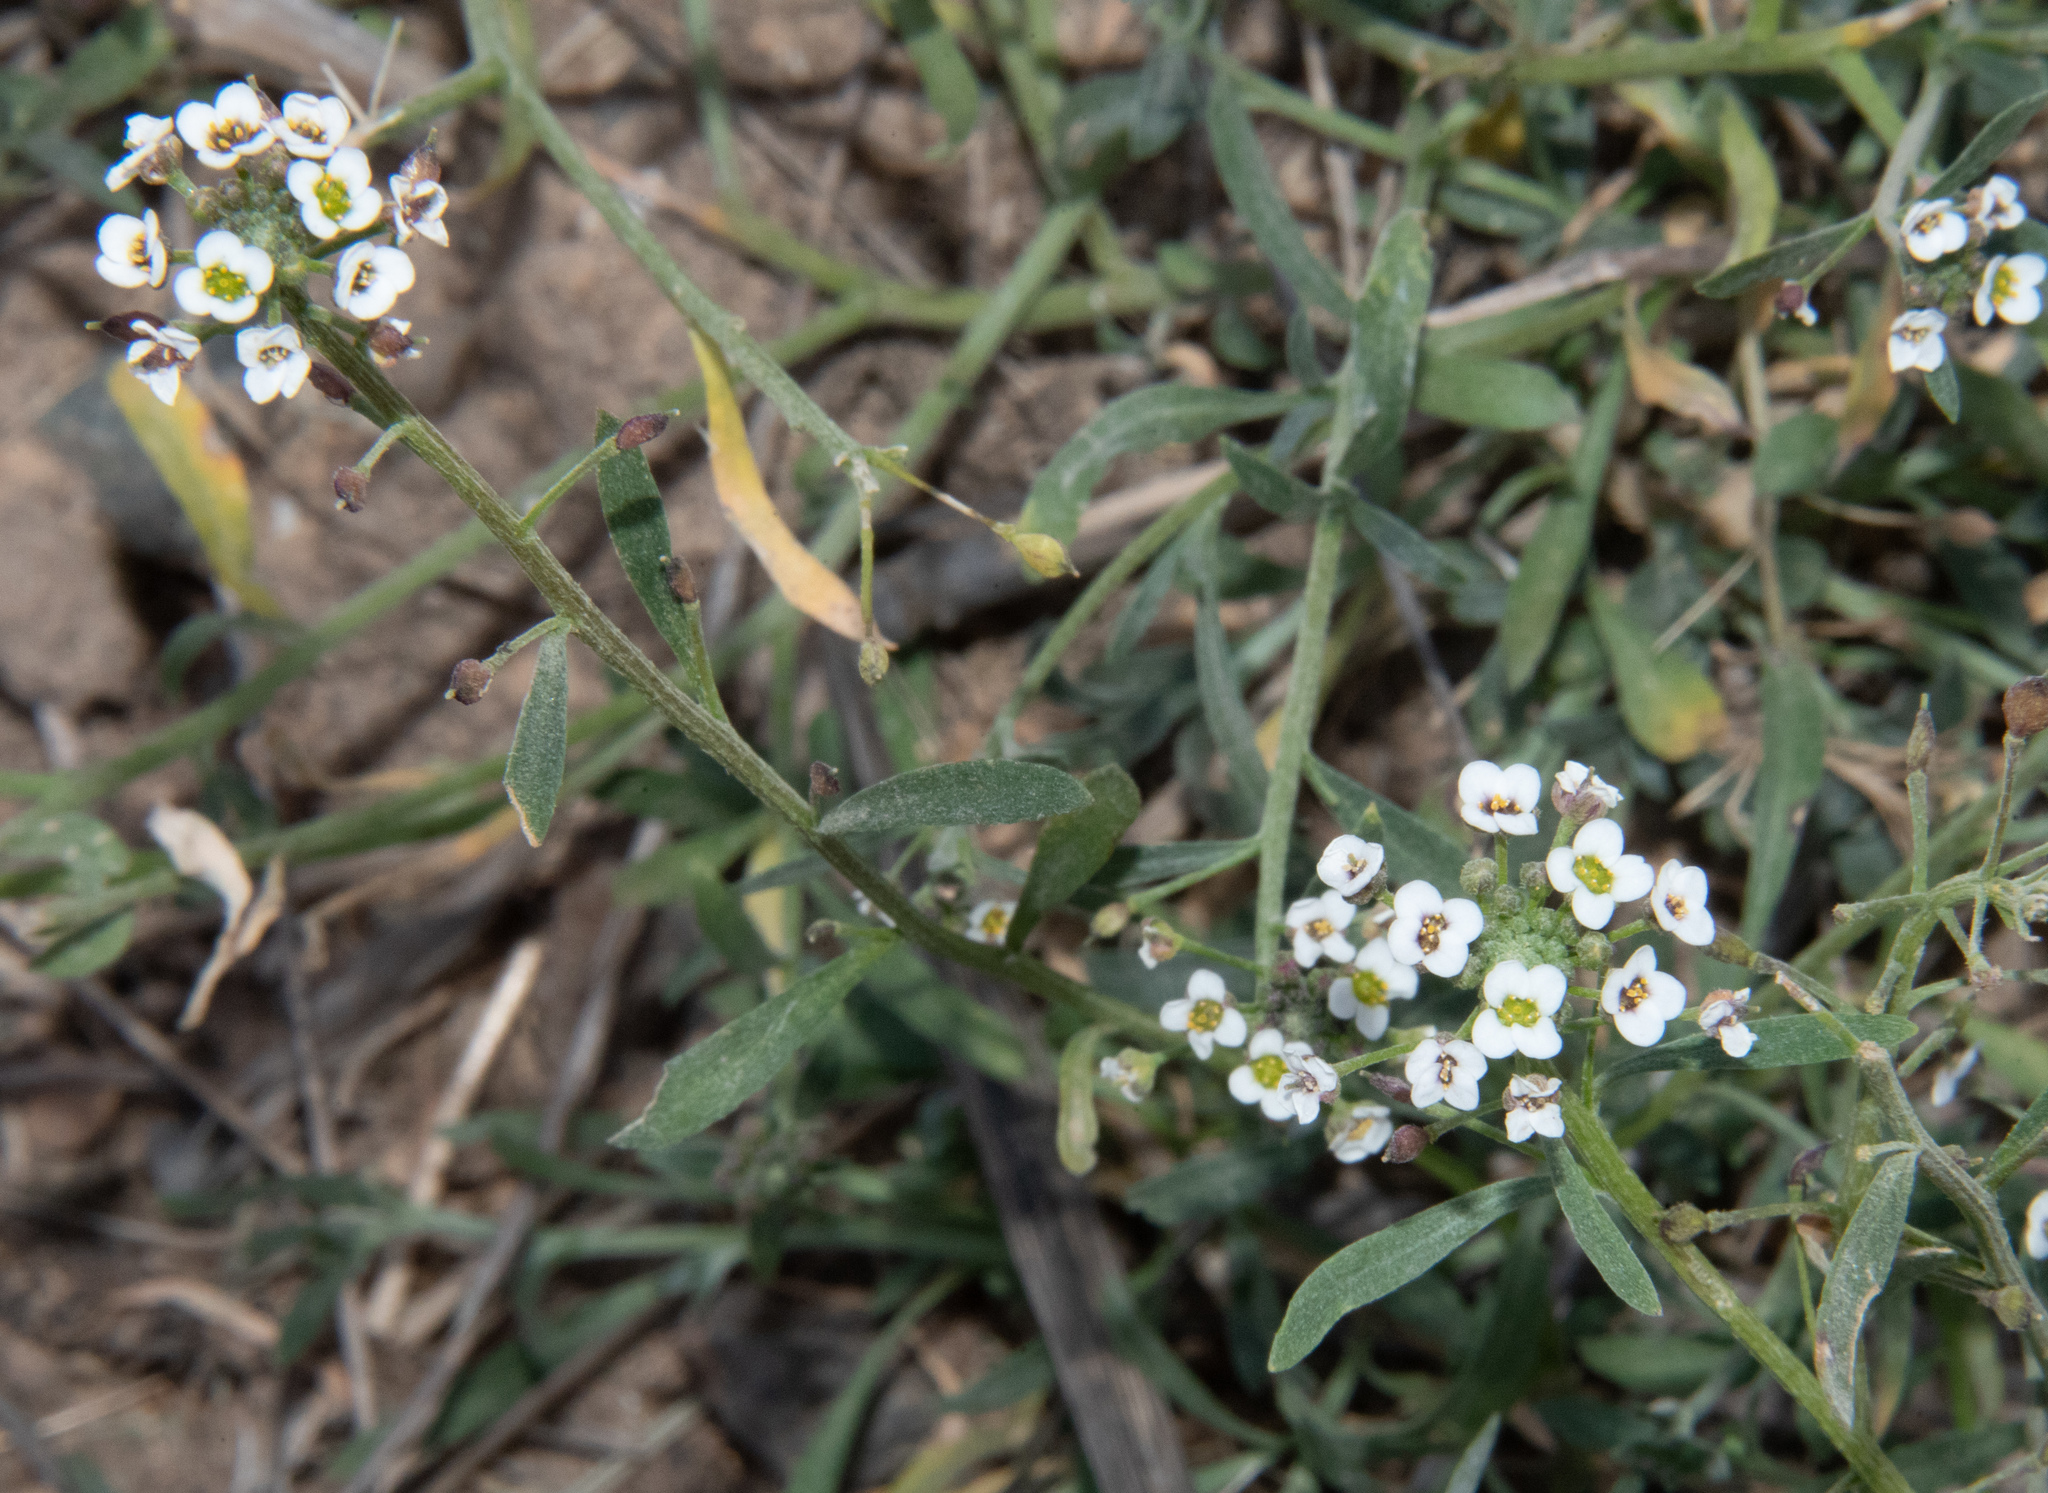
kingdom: Plantae
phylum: Tracheophyta
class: Magnoliopsida
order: Brassicales
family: Brassicaceae
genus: Lobularia
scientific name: Lobularia maritima
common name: Sweet alison
